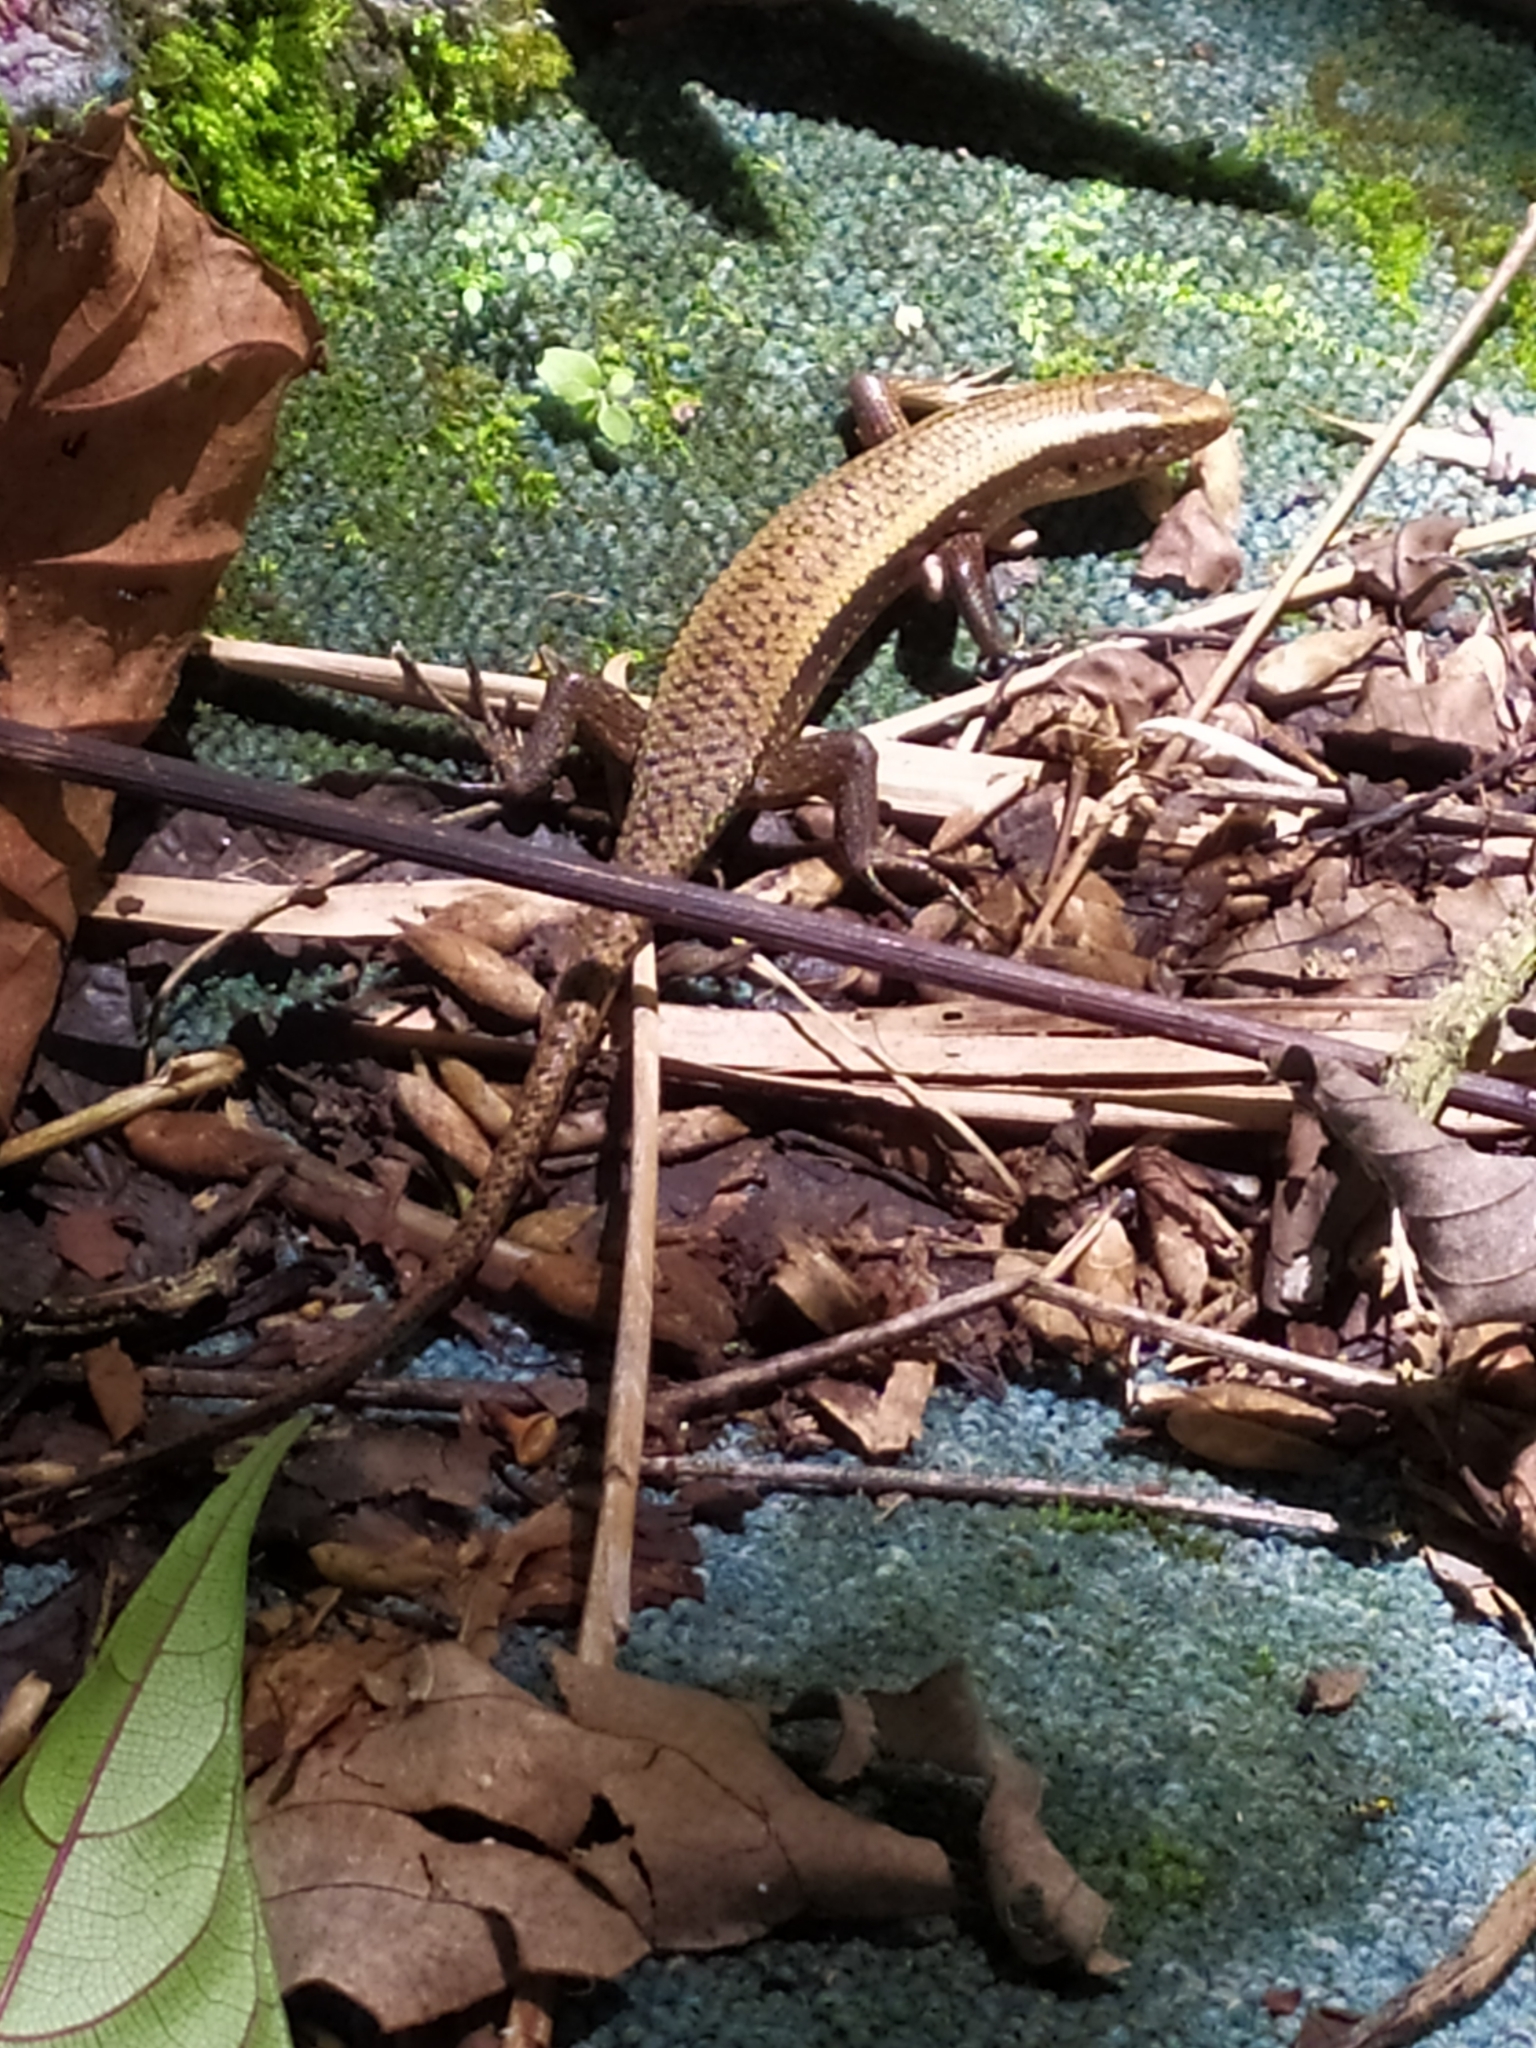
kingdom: Animalia
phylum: Chordata
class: Squamata
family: Scincidae
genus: Eutropis
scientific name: Eutropis multifasciata
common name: Common mabuya
